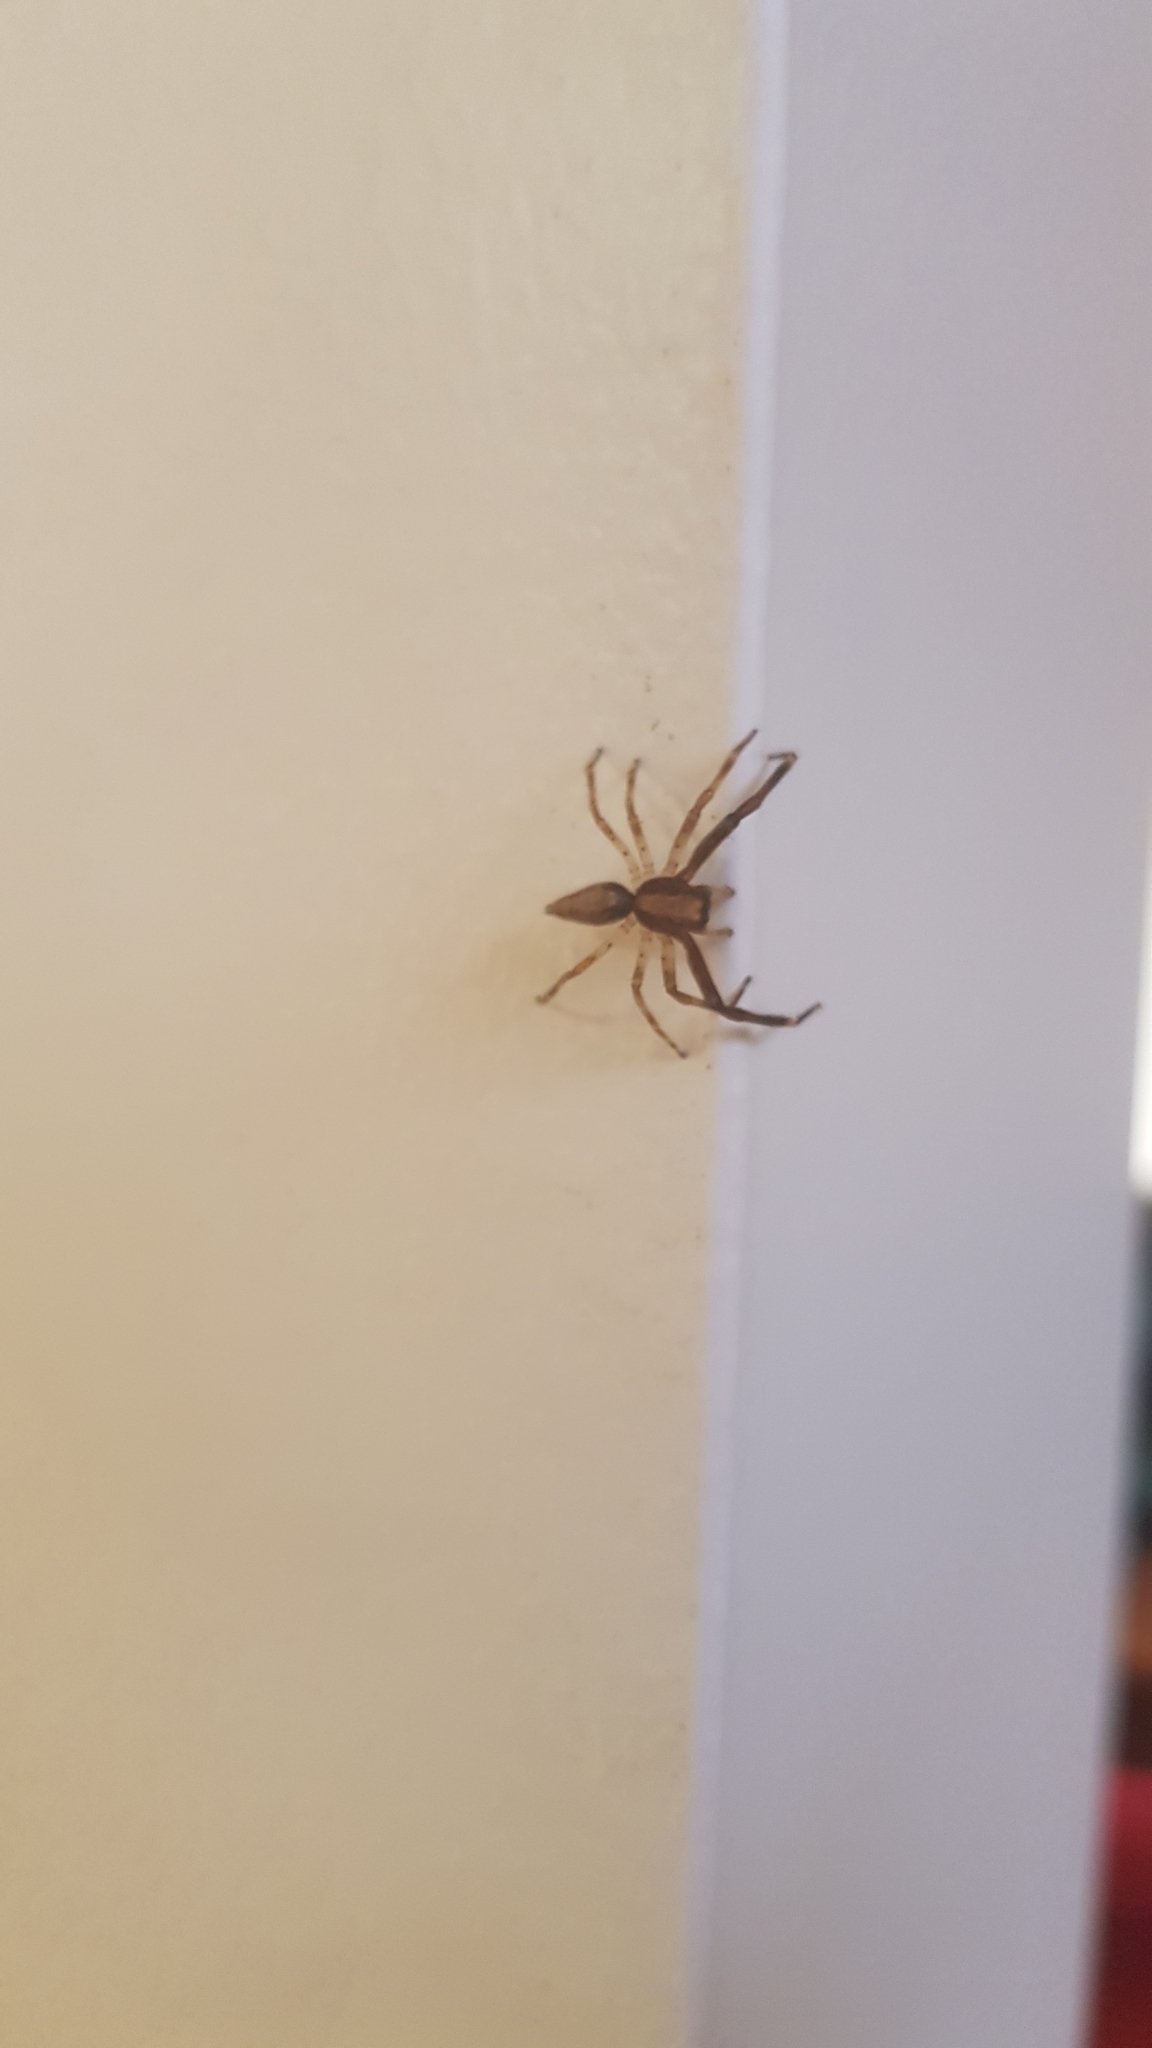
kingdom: Animalia
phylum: Arthropoda
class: Arachnida
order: Araneae
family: Salticidae
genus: Helpis
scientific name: Helpis minitabunda
